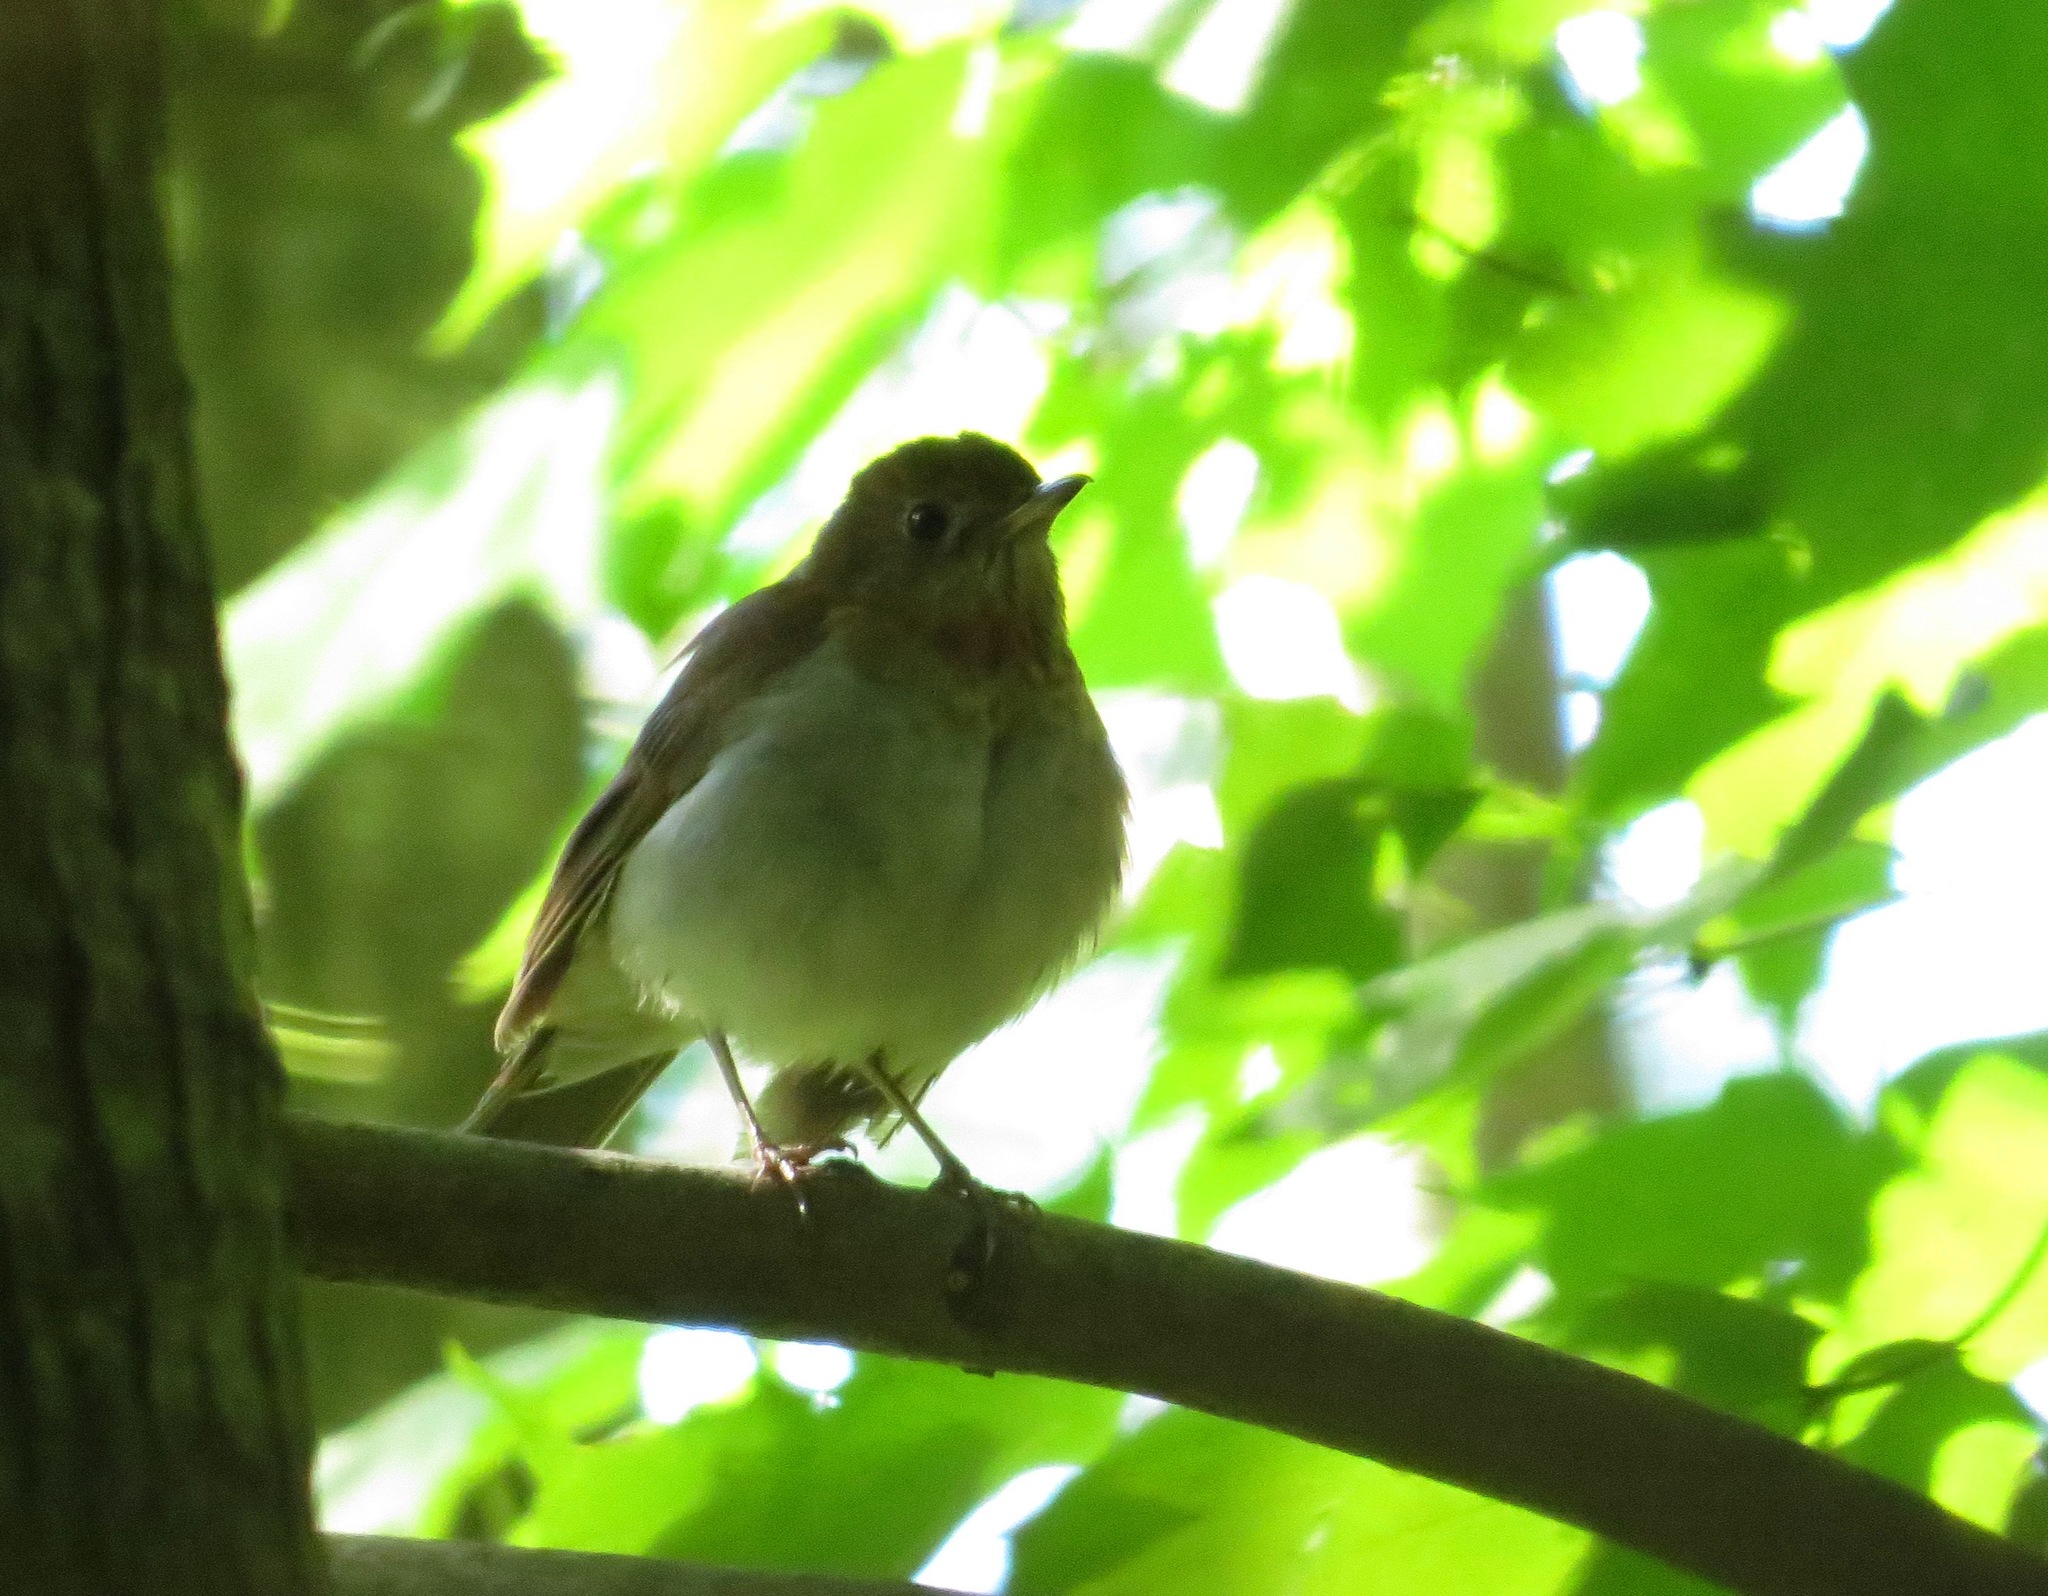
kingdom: Animalia
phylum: Chordata
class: Aves
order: Passeriformes
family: Turdidae
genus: Catharus
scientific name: Catharus fuscescens
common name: Veery
